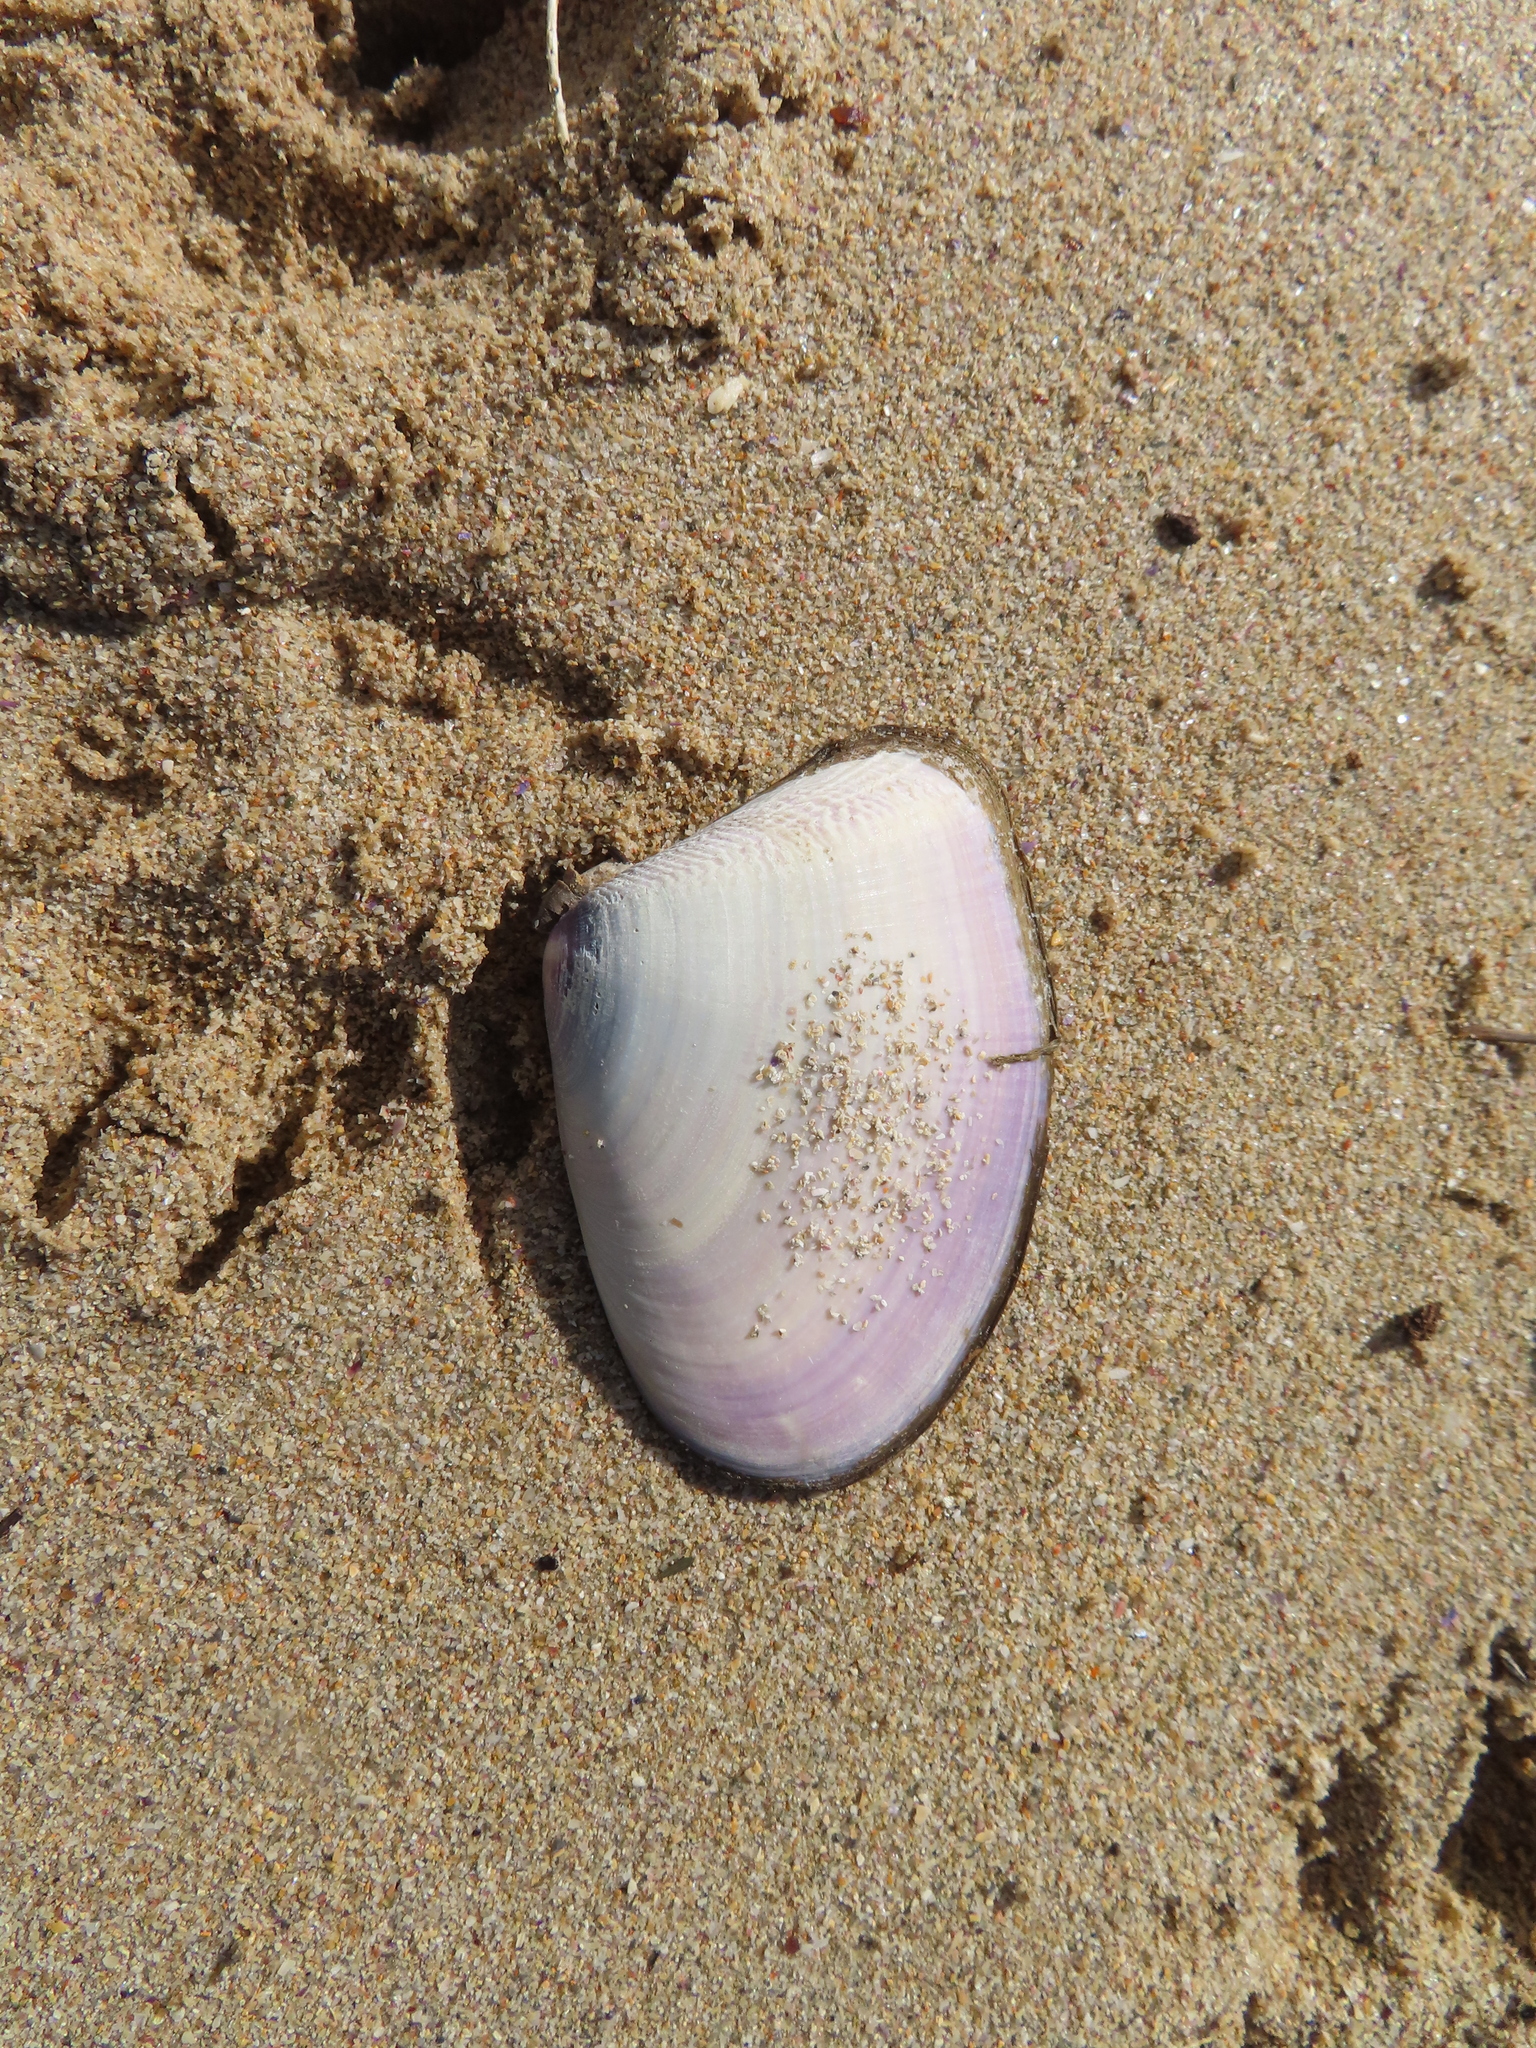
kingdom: Animalia
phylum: Mollusca
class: Bivalvia
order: Cardiida
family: Donacidae
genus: Donax
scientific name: Donax serra
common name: Giant south african wedge clam
